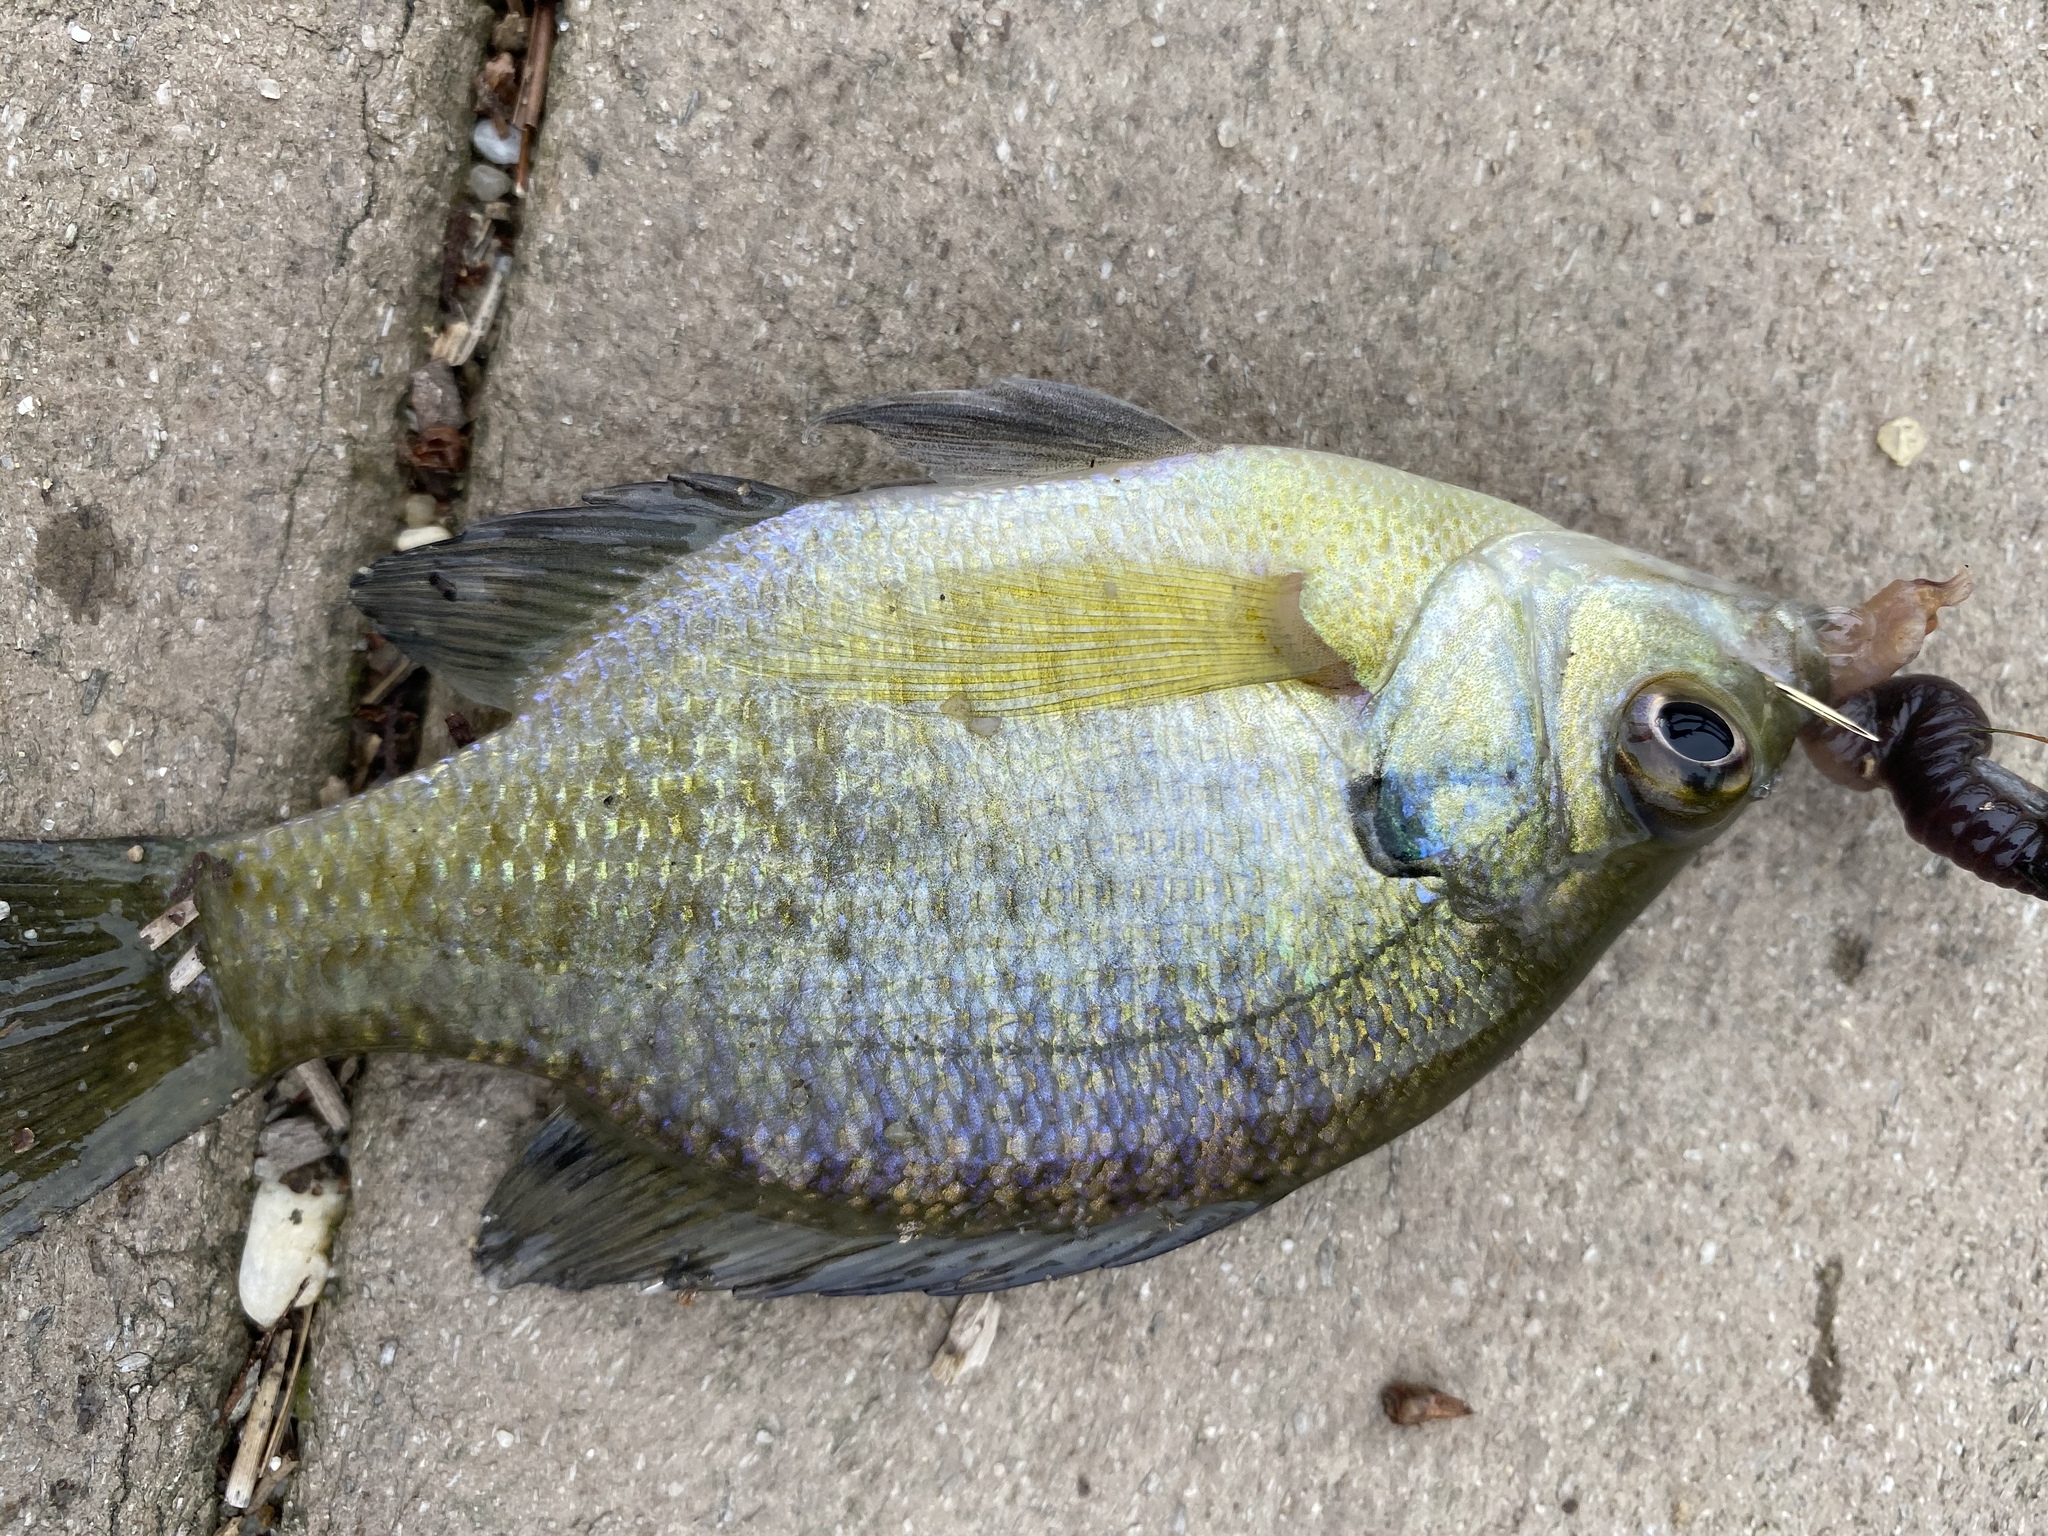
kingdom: Animalia
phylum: Chordata
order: Perciformes
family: Centrarchidae
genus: Lepomis
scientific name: Lepomis macrochirus
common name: Bluegill
